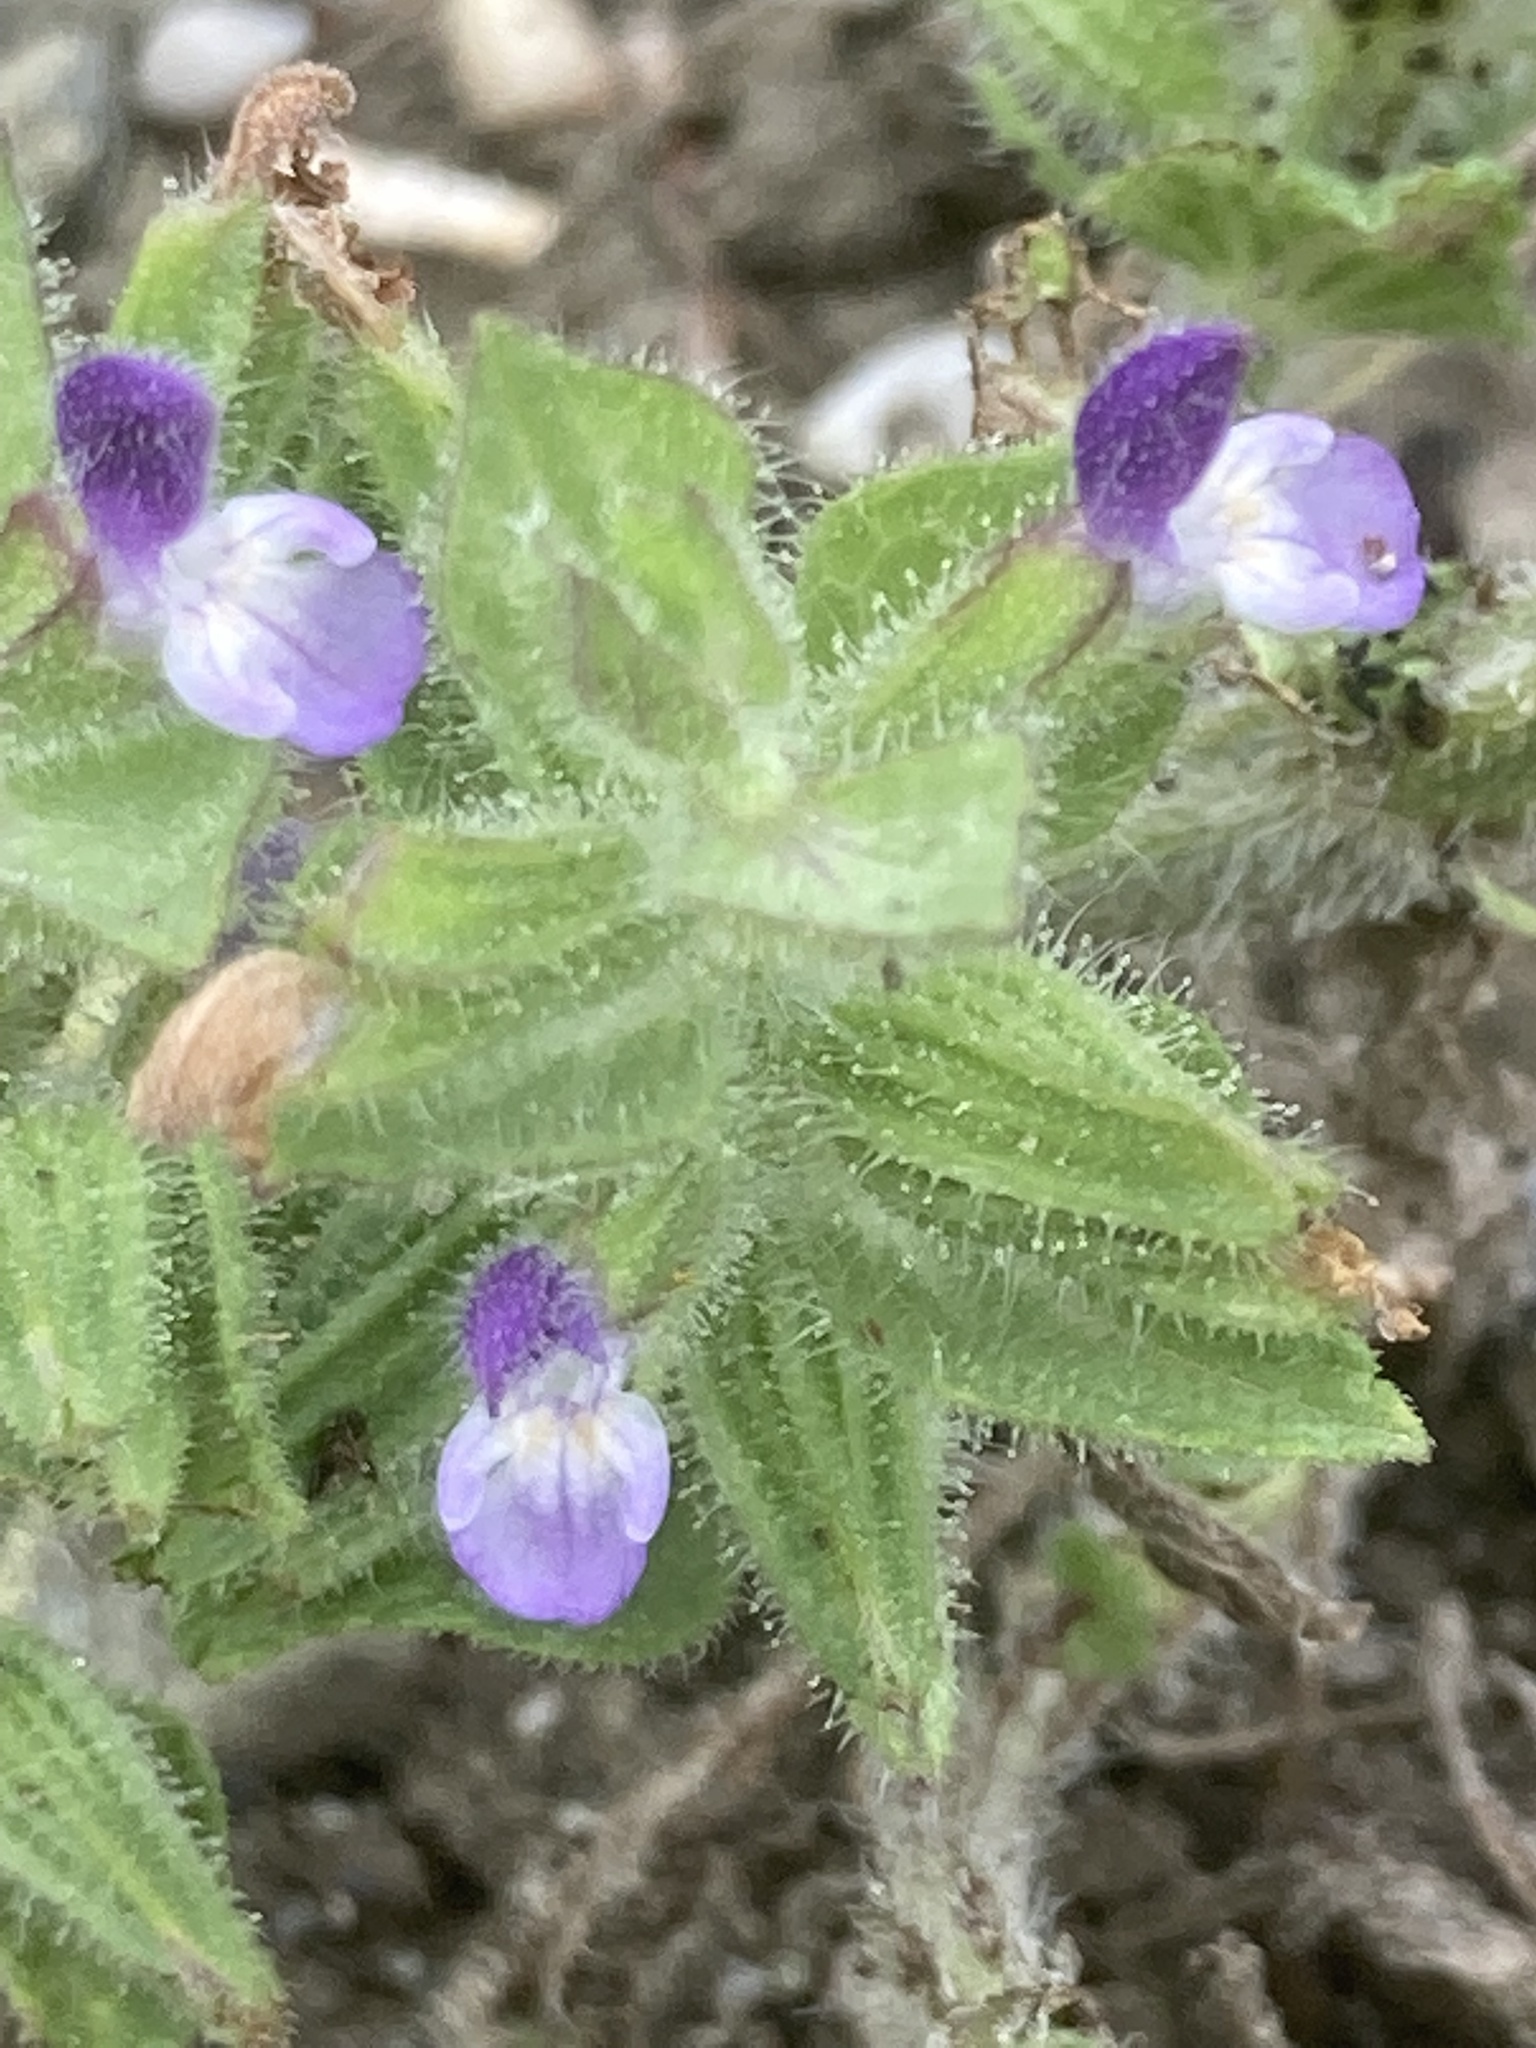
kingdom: Plantae
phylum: Tracheophyta
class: Magnoliopsida
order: Lamiales
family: Lamiaceae
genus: Salvia
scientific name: Salvia viridis
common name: Annual clary
